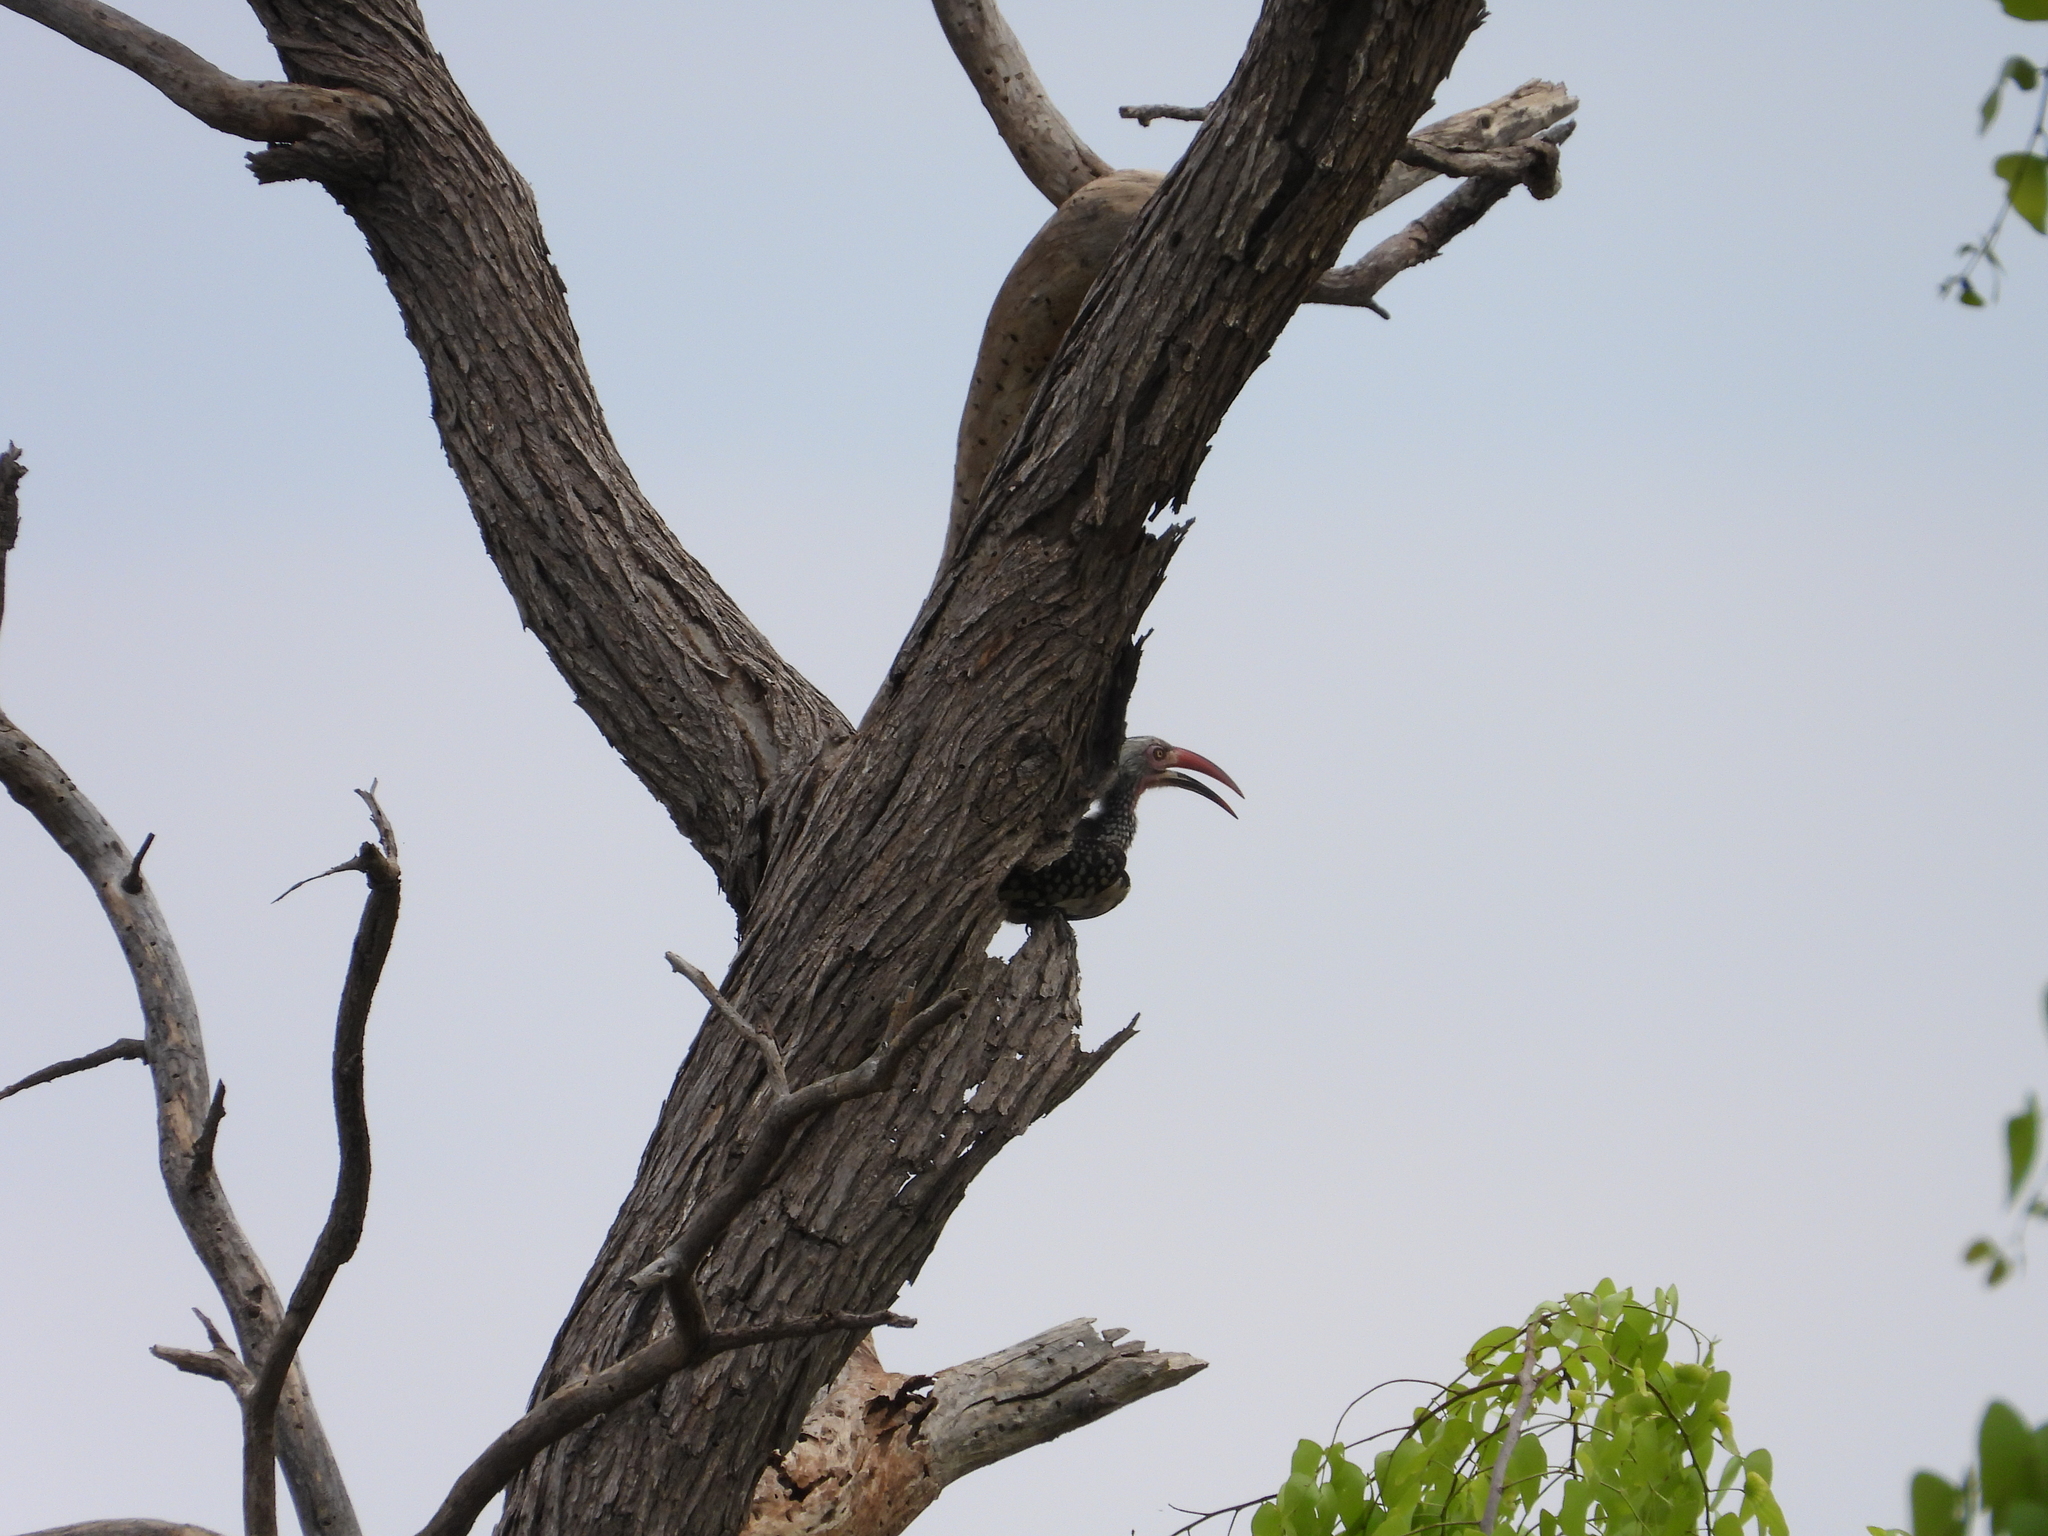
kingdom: Animalia
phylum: Chordata
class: Aves
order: Bucerotiformes
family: Bucerotidae
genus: Tockus
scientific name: Tockus rufirostris
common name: Southern red-billed hornbill
